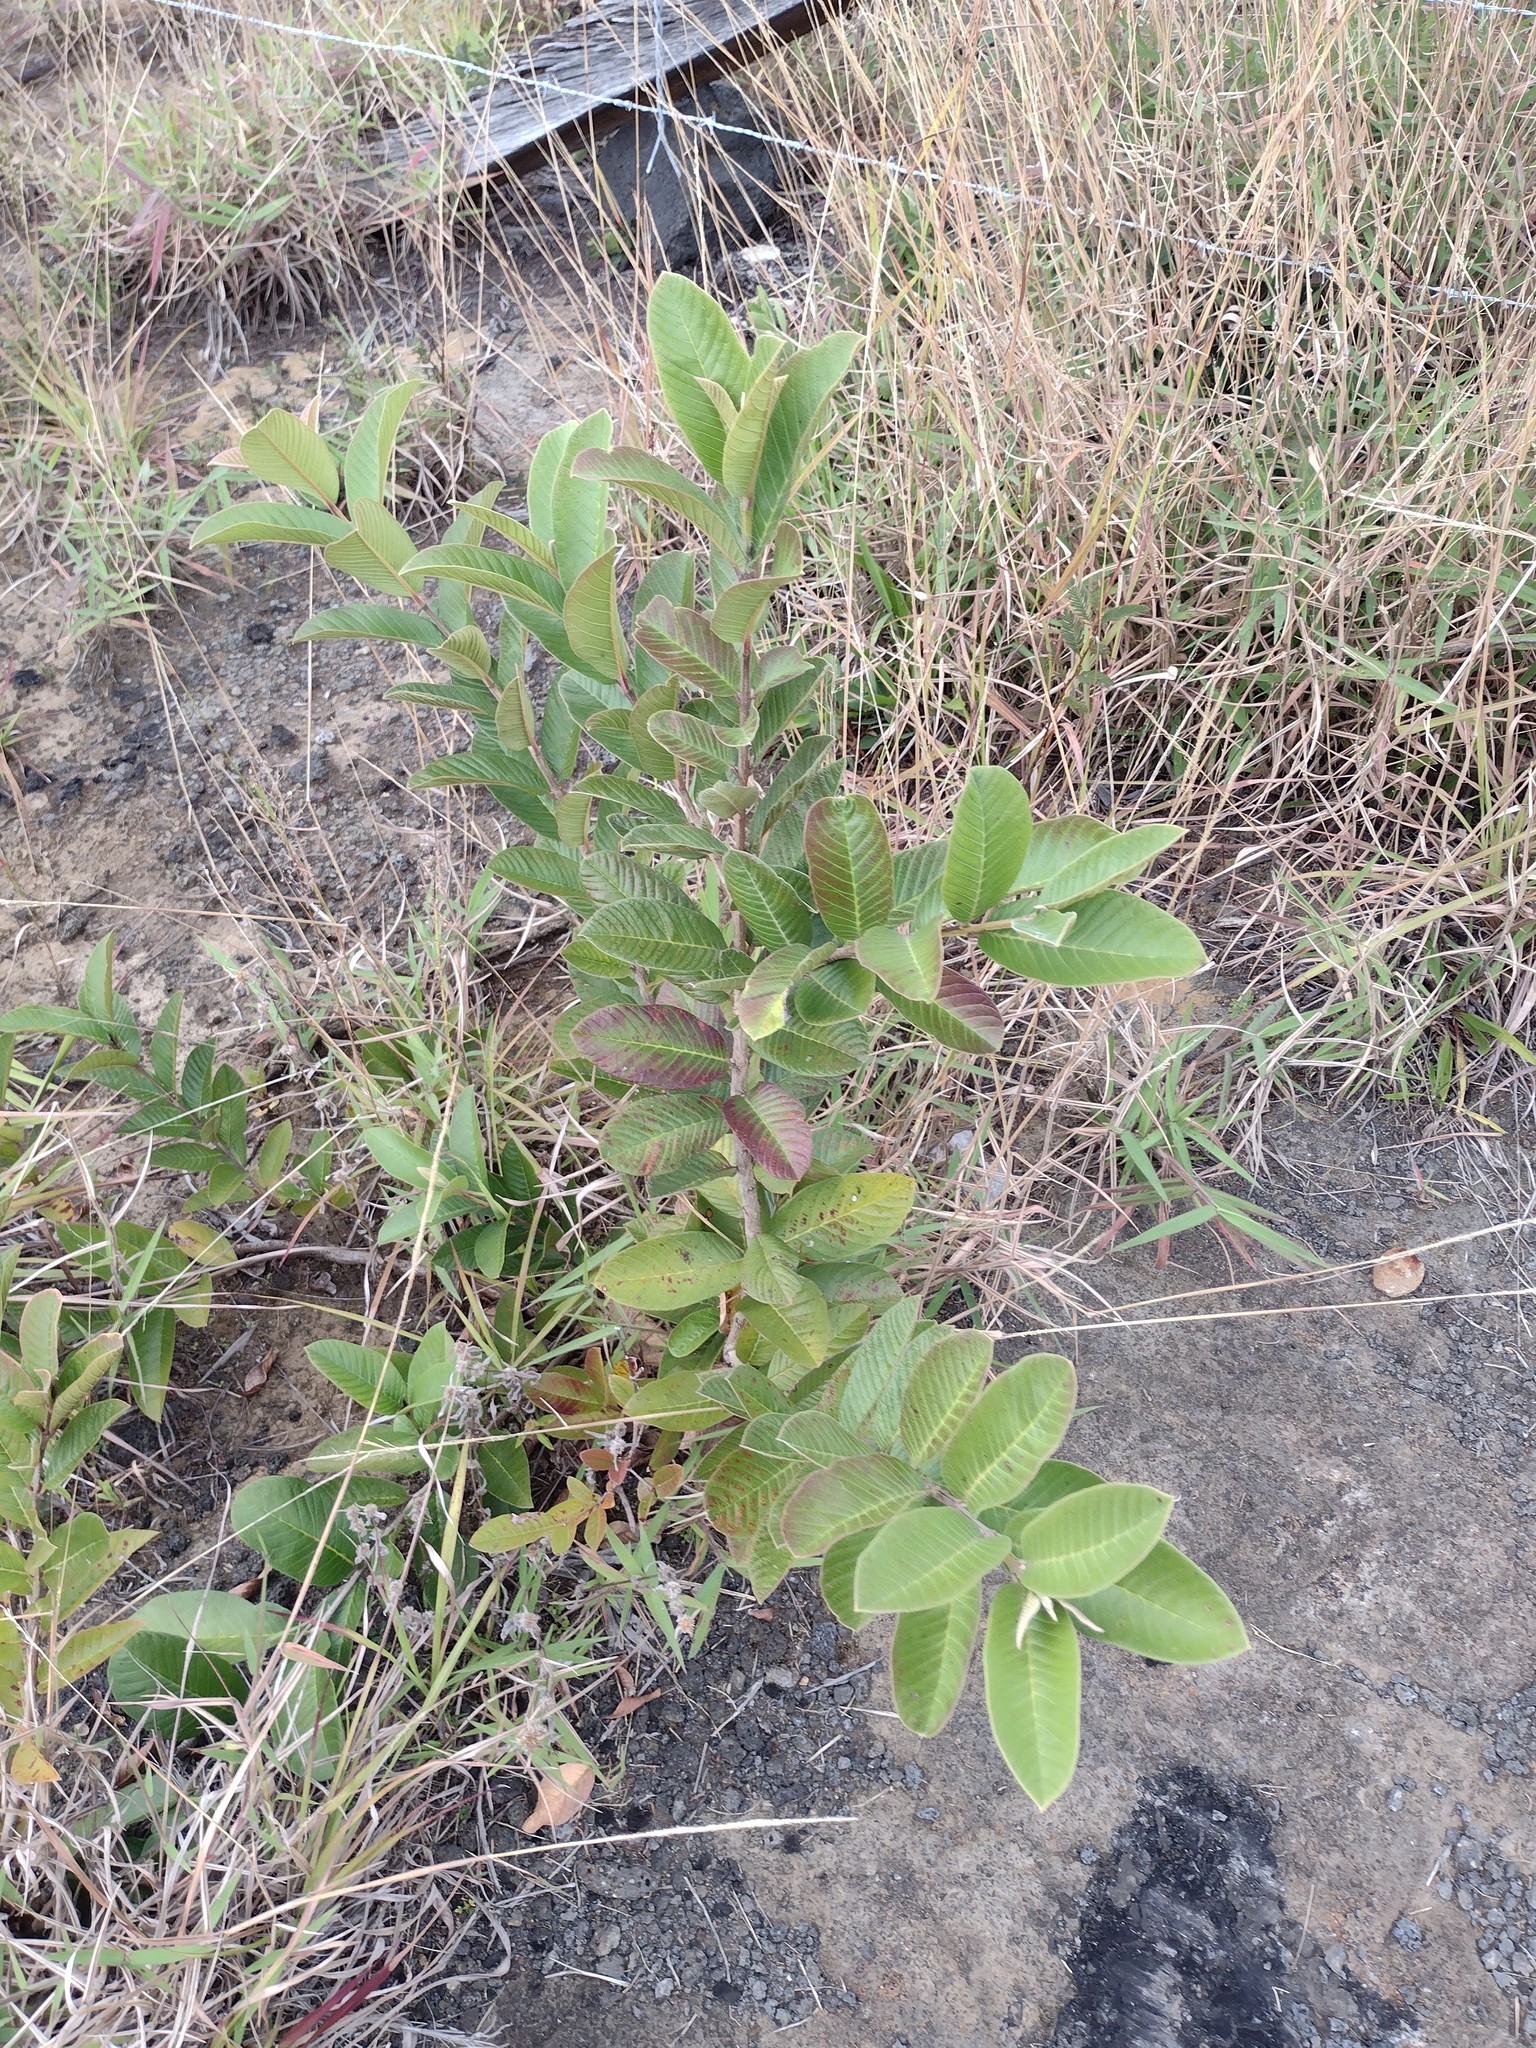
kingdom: Plantae
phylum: Tracheophyta
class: Magnoliopsida
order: Myrtales
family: Myrtaceae
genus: Psidium
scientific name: Psidium guajava
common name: Guava
